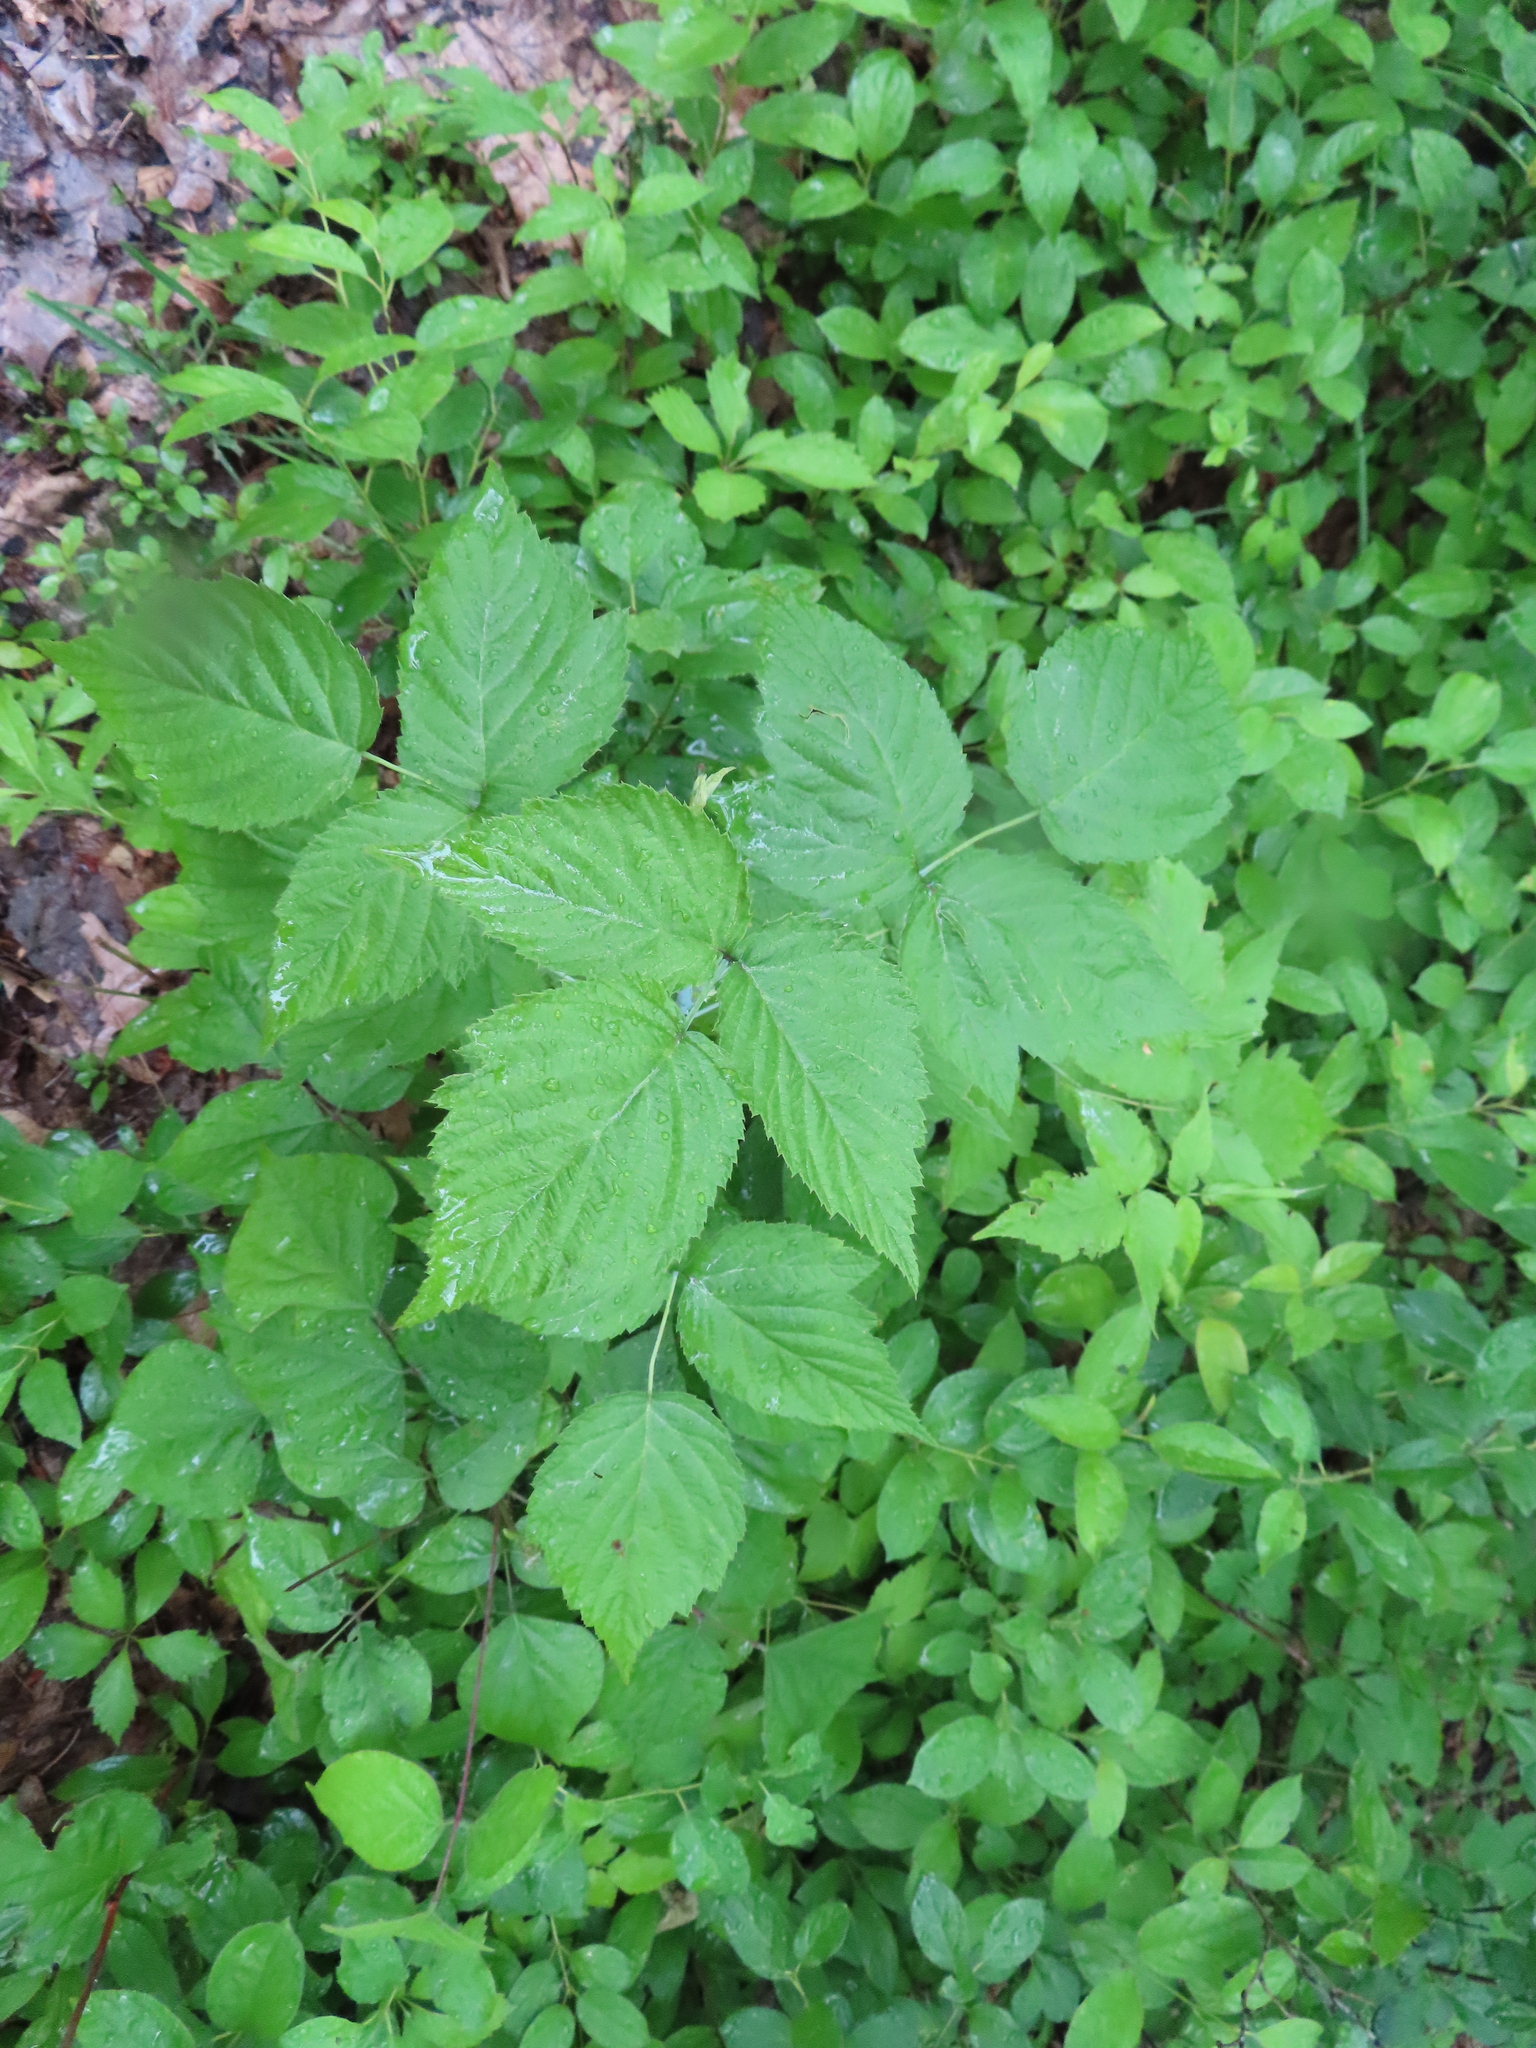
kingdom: Plantae
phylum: Tracheophyta
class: Magnoliopsida
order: Rosales
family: Rosaceae
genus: Rubus
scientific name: Rubus occidentalis
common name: Black raspberry
